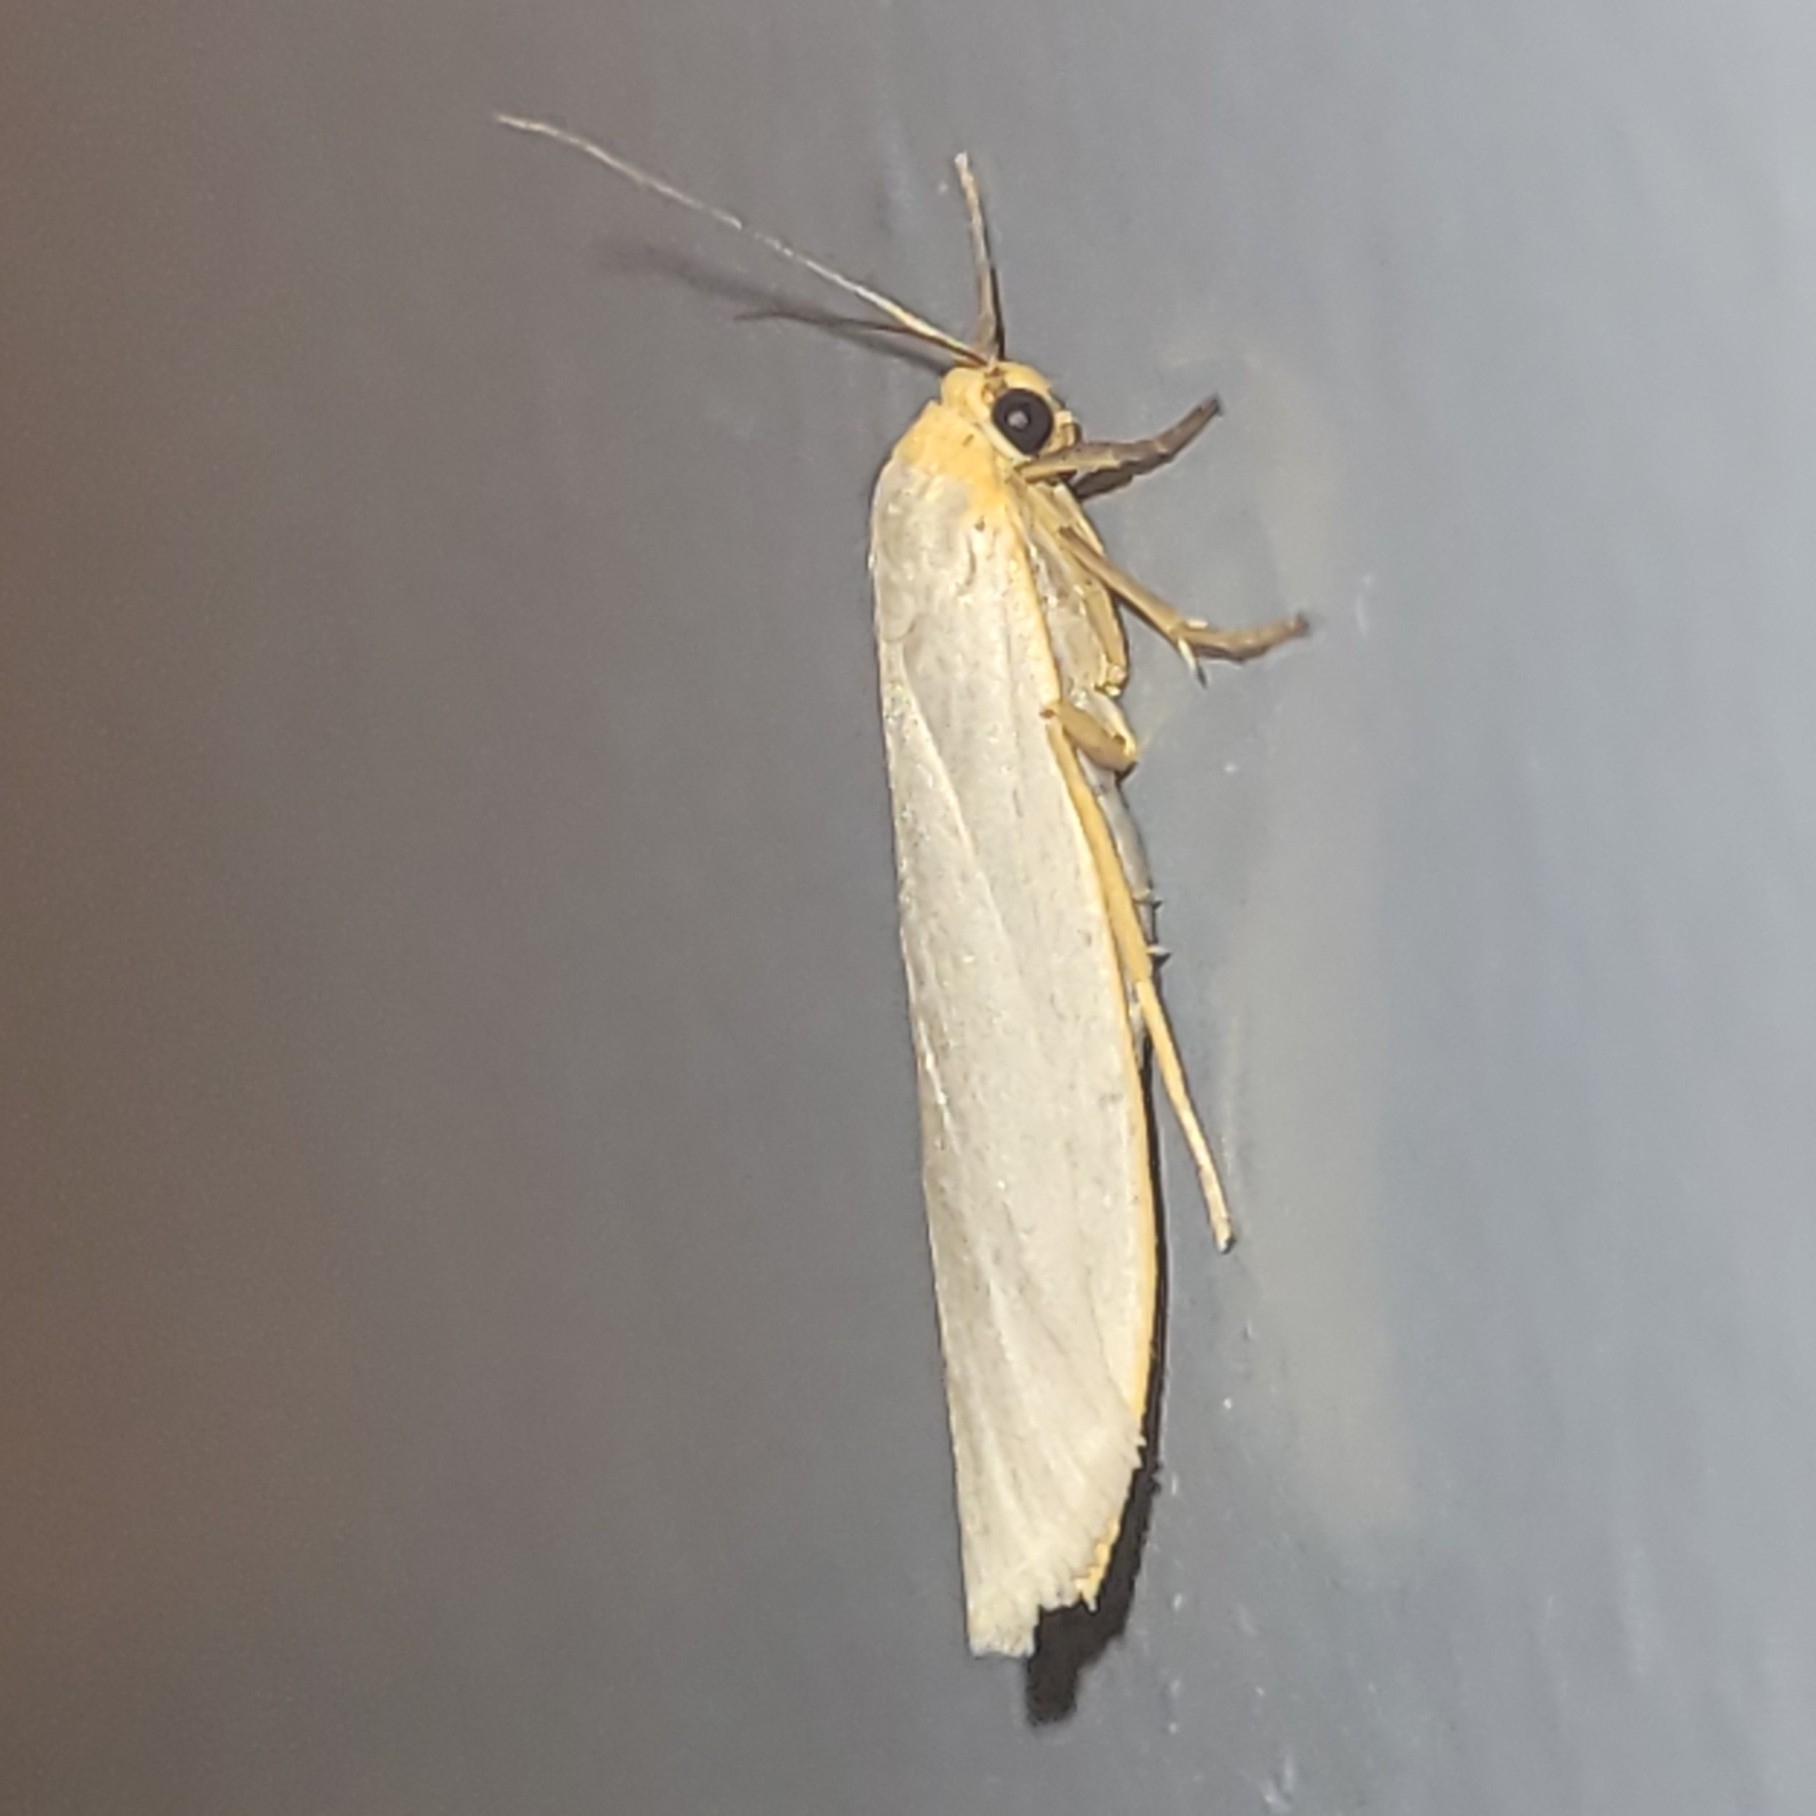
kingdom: Animalia
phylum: Arthropoda
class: Insecta
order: Lepidoptera
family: Erebidae
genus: Eilema
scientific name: Eilema caniola
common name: Hoary footman
